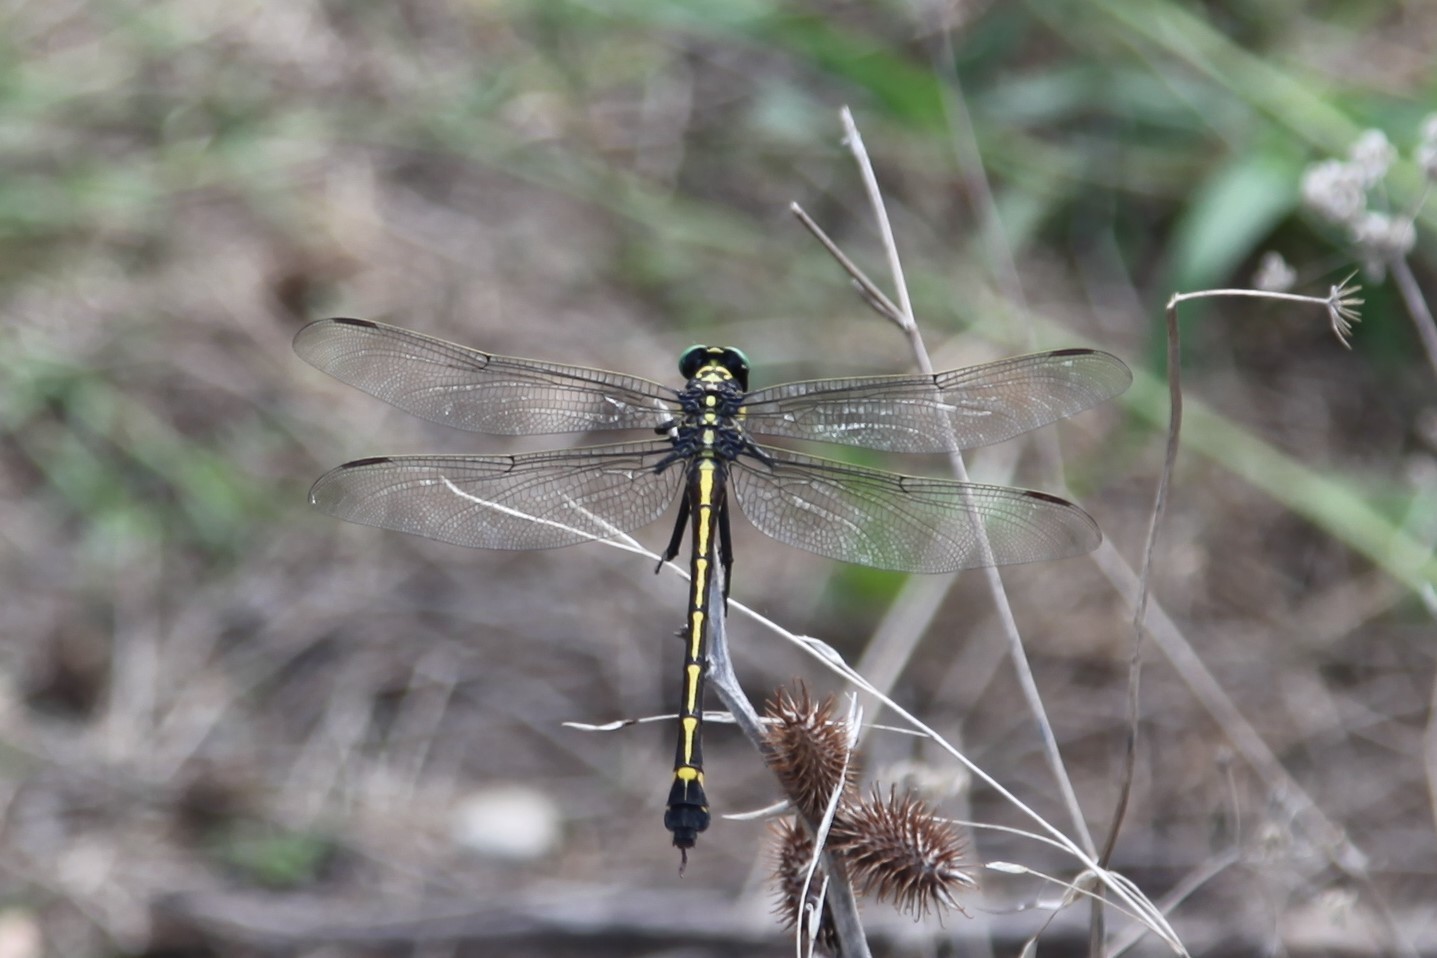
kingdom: Animalia
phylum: Arthropoda
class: Insecta
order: Odonata
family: Gomphidae
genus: Hagenius
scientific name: Hagenius brevistylus
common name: Dragonhunter
